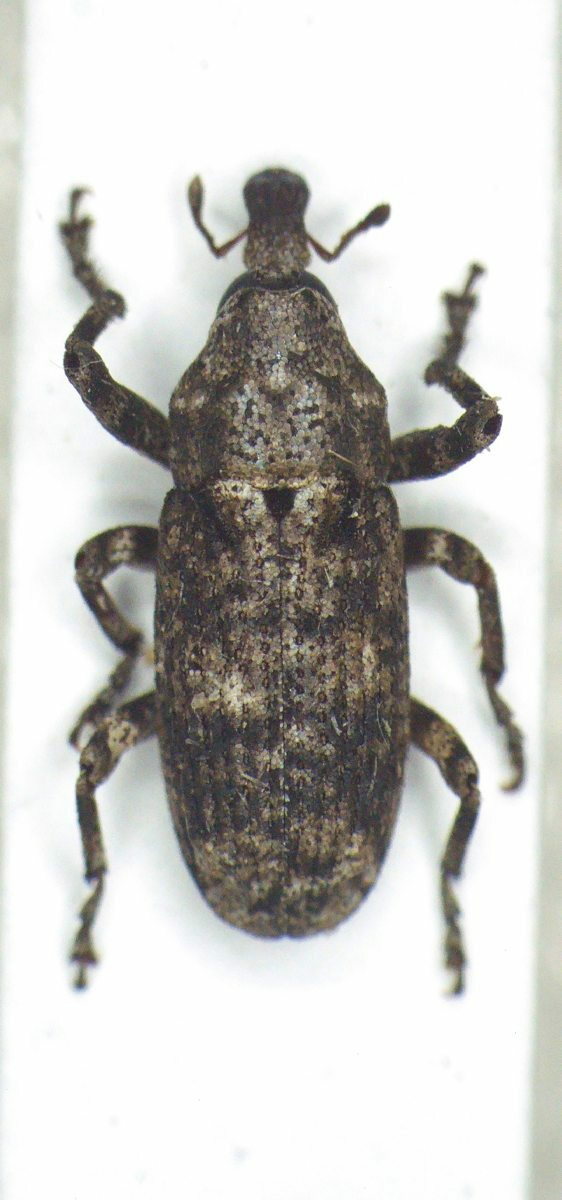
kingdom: Animalia
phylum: Arthropoda
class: Insecta
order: Coleoptera
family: Curculionidae
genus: Gasterocercus
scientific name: Gasterocercus depressirostris
